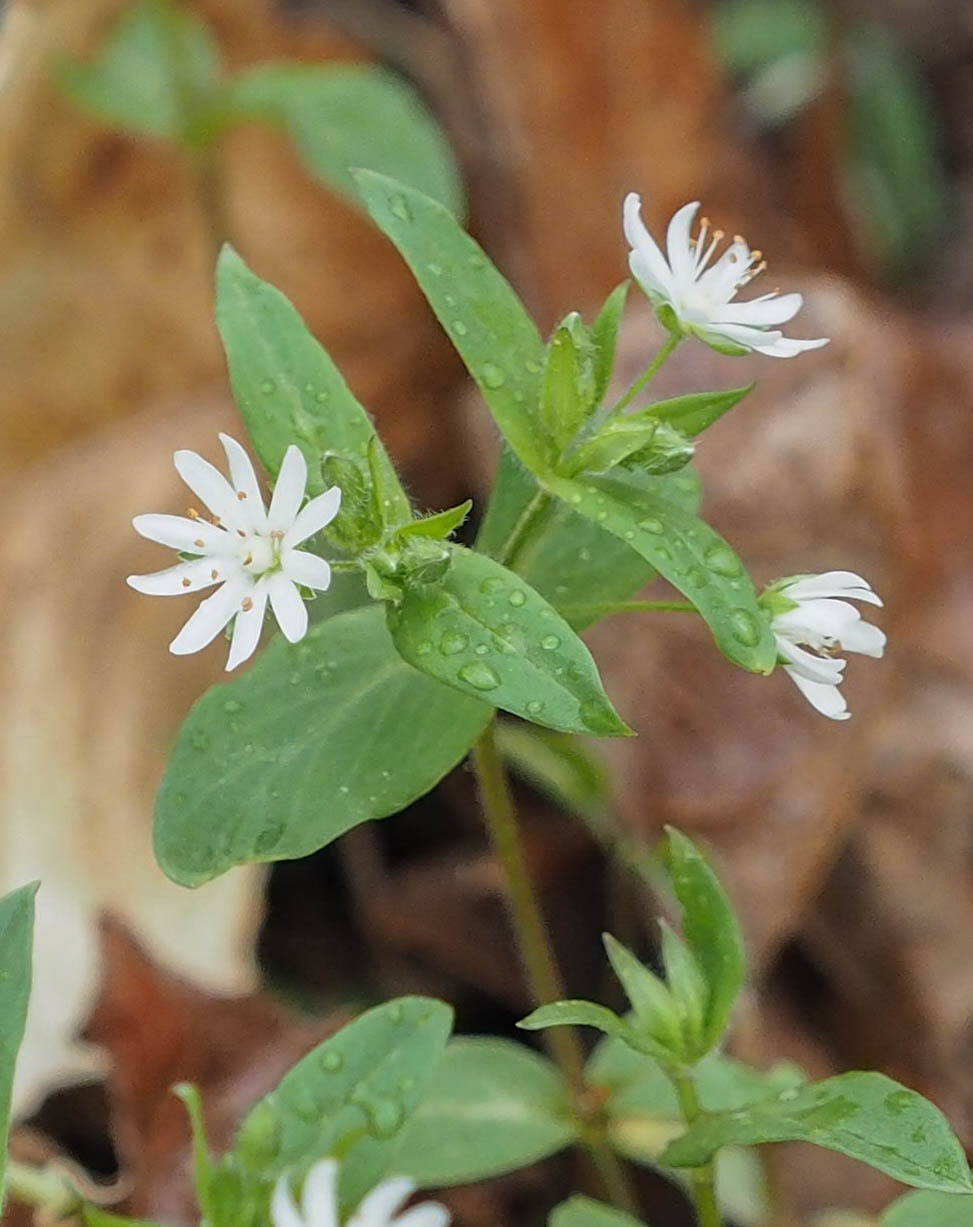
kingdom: Plantae
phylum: Tracheophyta
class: Magnoliopsida
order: Caryophyllales
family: Caryophyllaceae
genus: Stellaria
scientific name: Stellaria pubera
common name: Star chickweed
